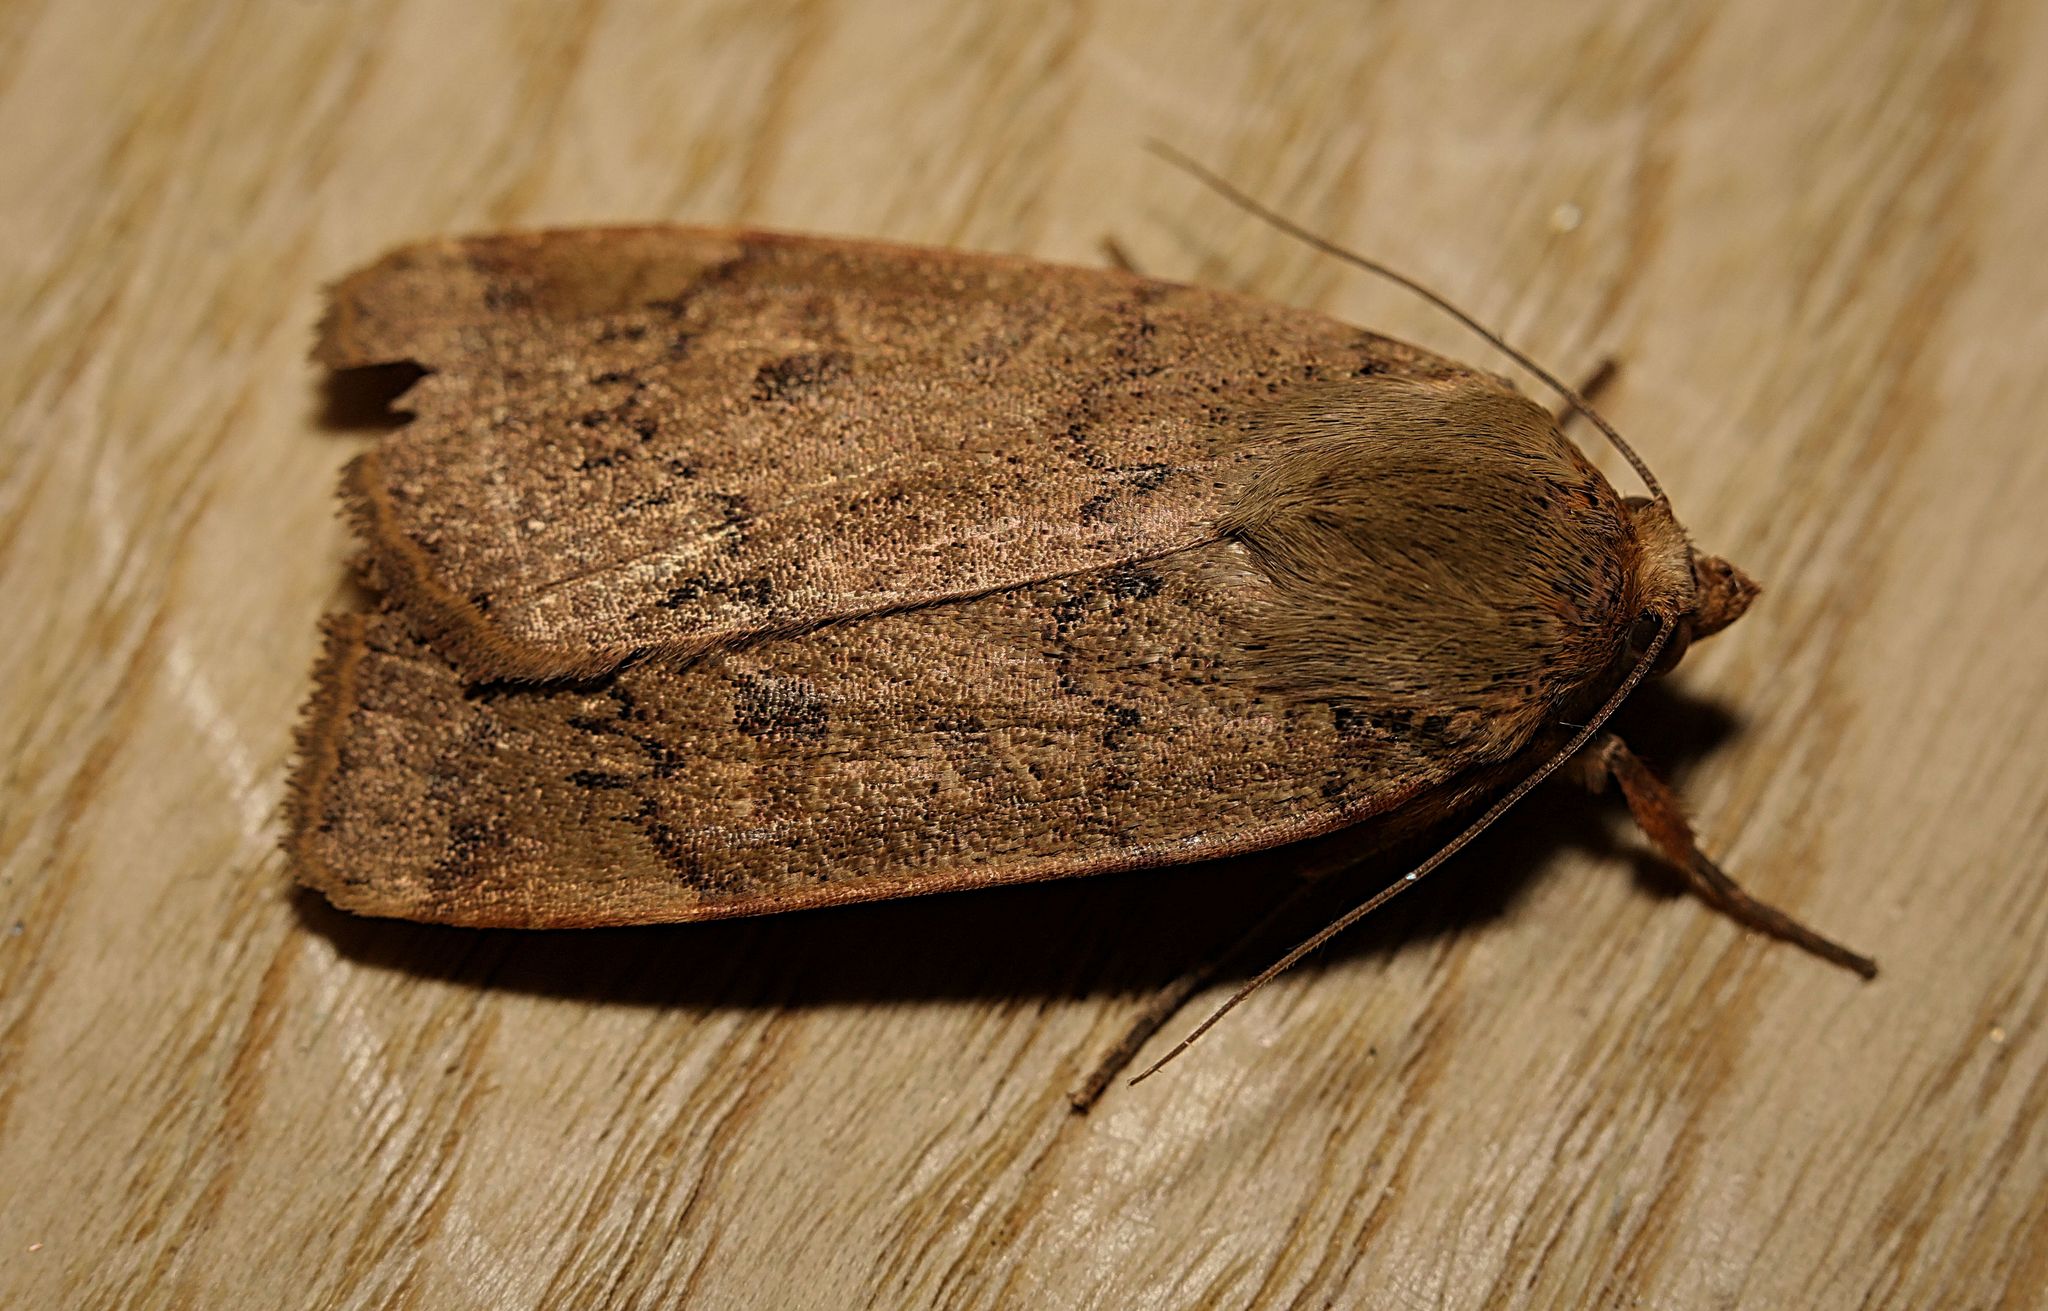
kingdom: Animalia
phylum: Arthropoda
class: Insecta
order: Lepidoptera
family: Noctuidae
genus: Noctua
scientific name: Noctua comes
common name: Lesser yellow underwing
